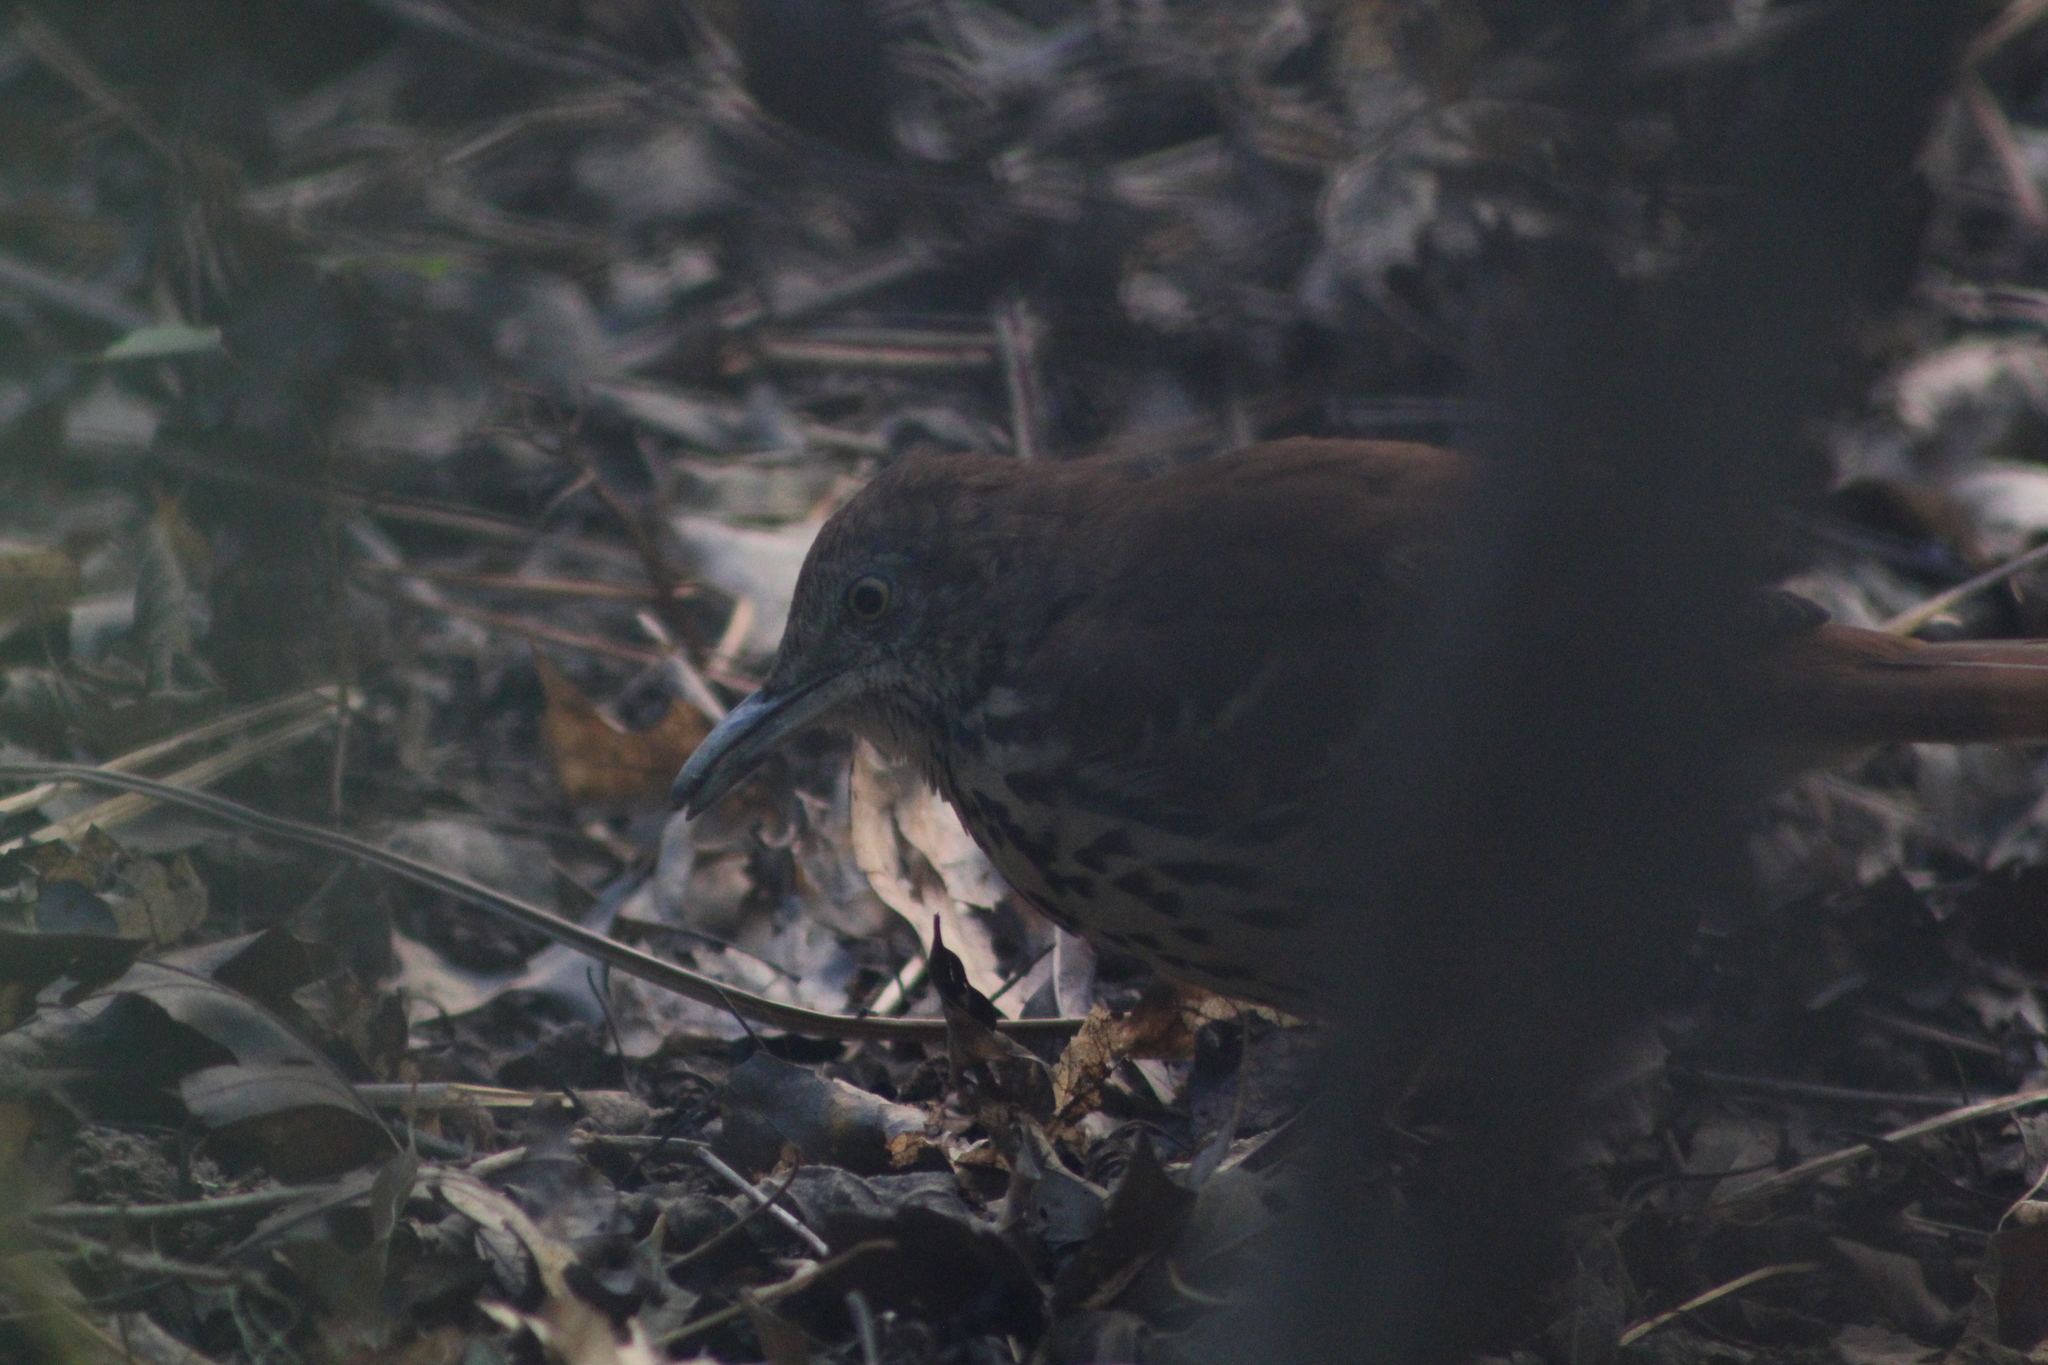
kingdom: Animalia
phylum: Chordata
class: Aves
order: Passeriformes
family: Mimidae
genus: Toxostoma
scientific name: Toxostoma rufum
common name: Brown thrasher
